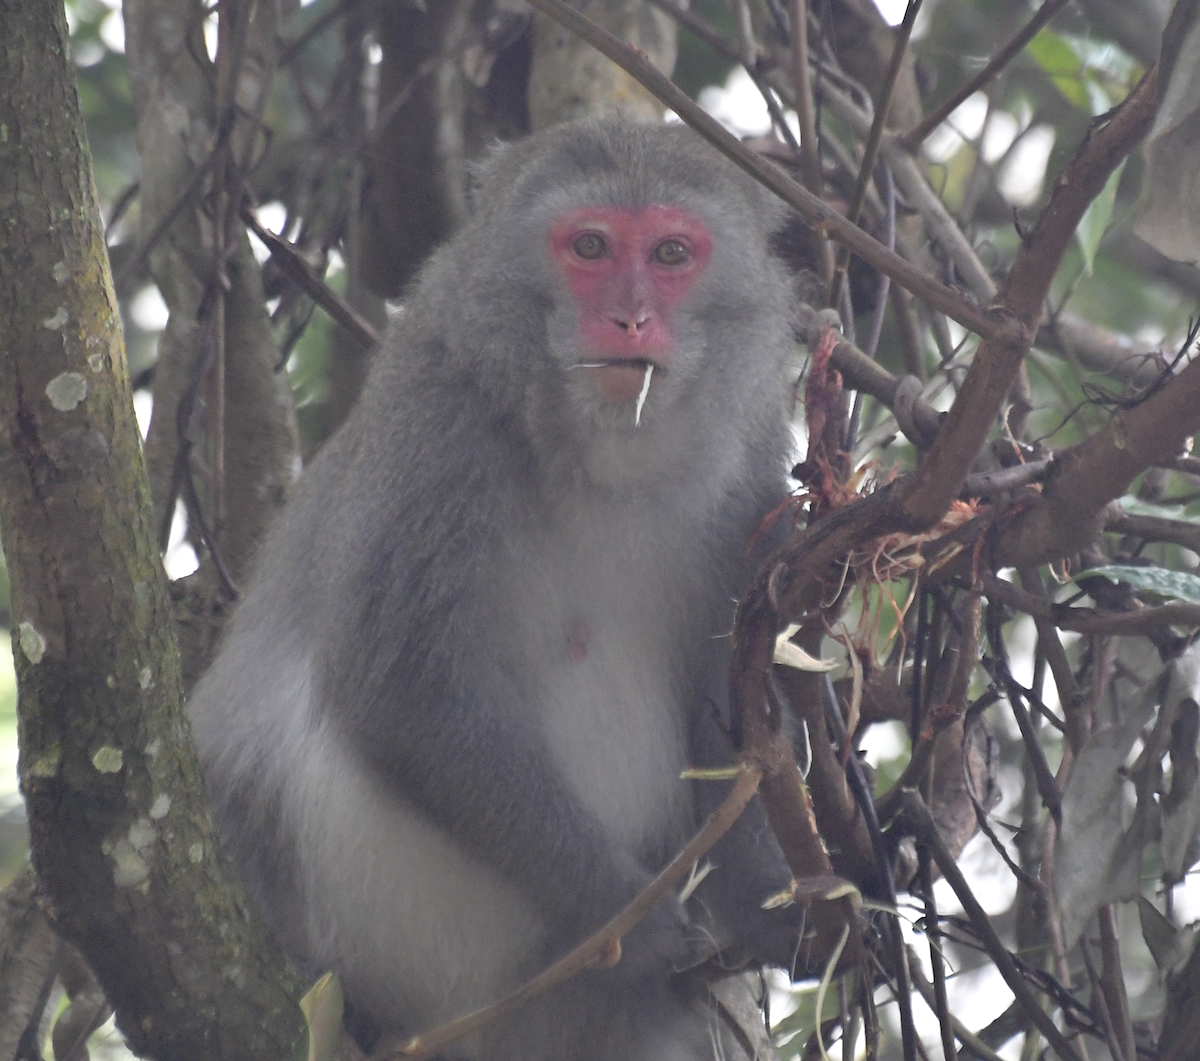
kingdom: Animalia
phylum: Chordata
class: Mammalia
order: Primates
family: Cercopithecidae
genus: Macaca
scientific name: Macaca cyclopis
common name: Formosan rock macaque
